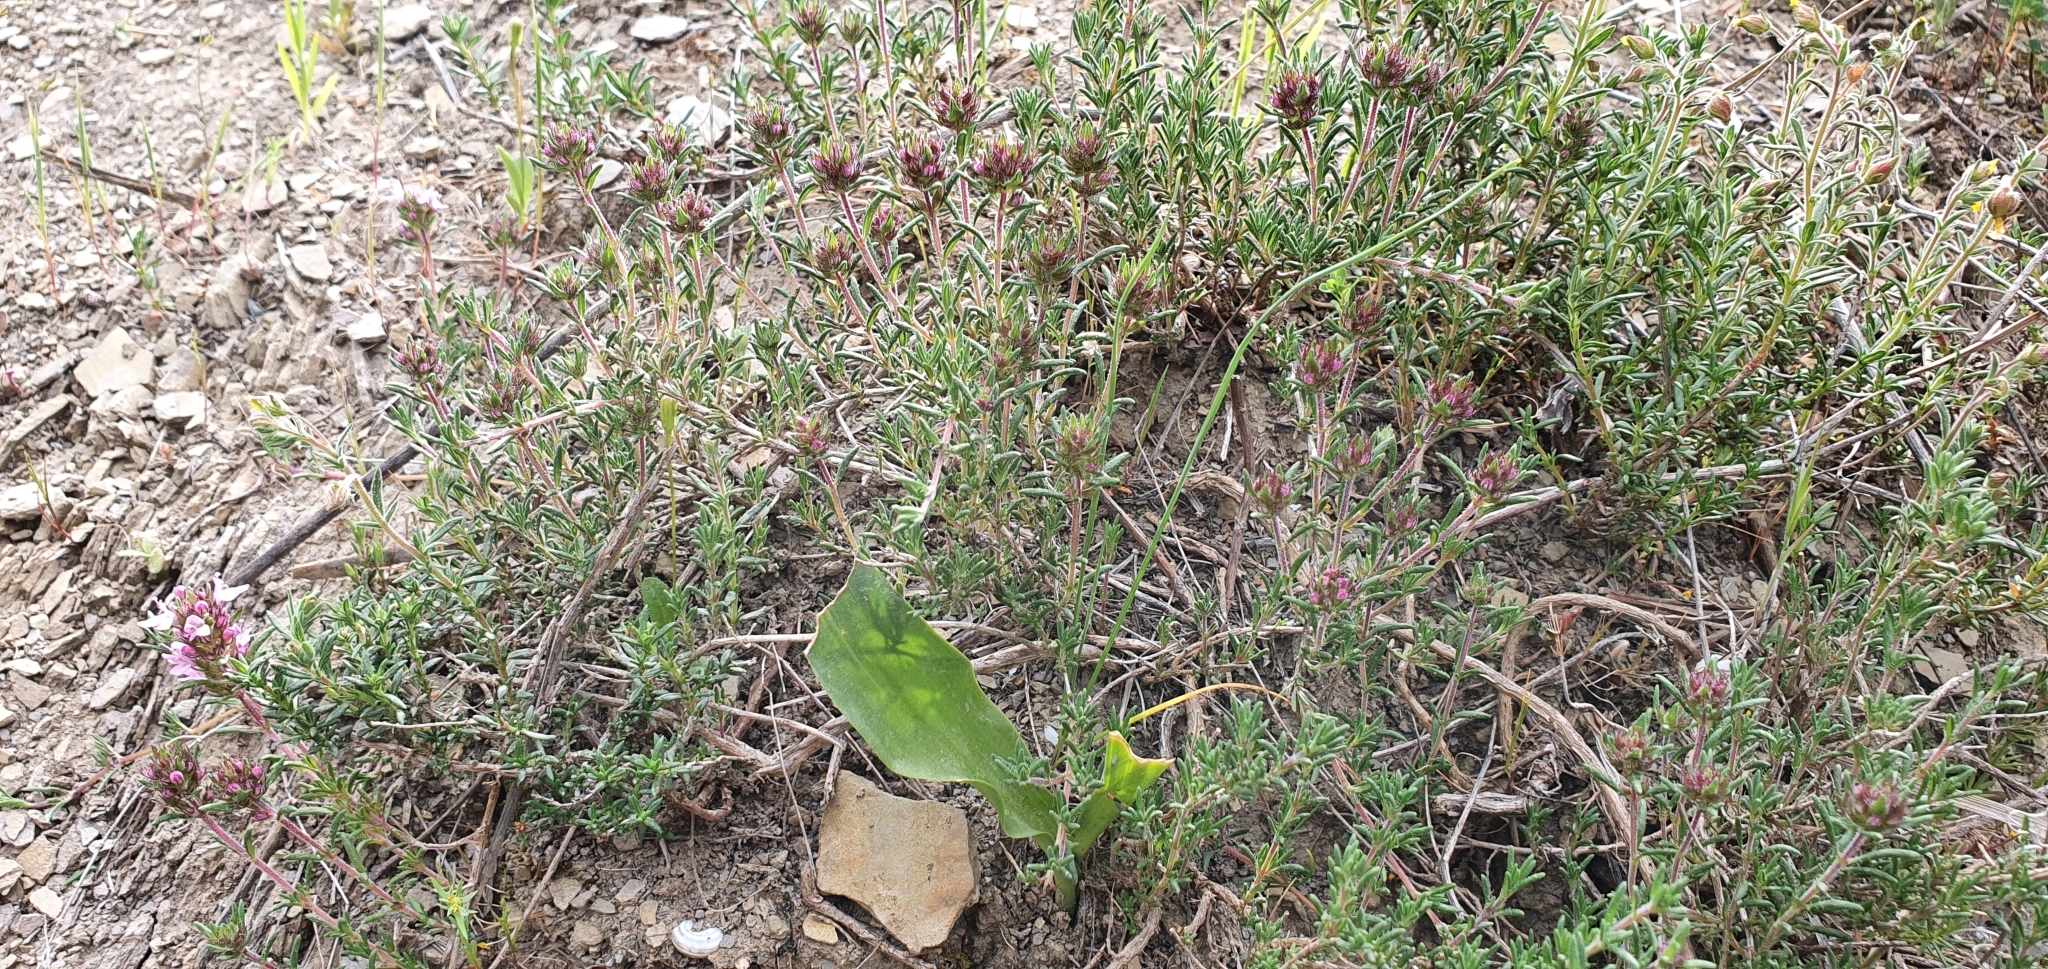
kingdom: Plantae
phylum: Tracheophyta
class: Magnoliopsida
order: Lamiales
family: Lamiaceae
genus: Thymus
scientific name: Thymus willdenowii
